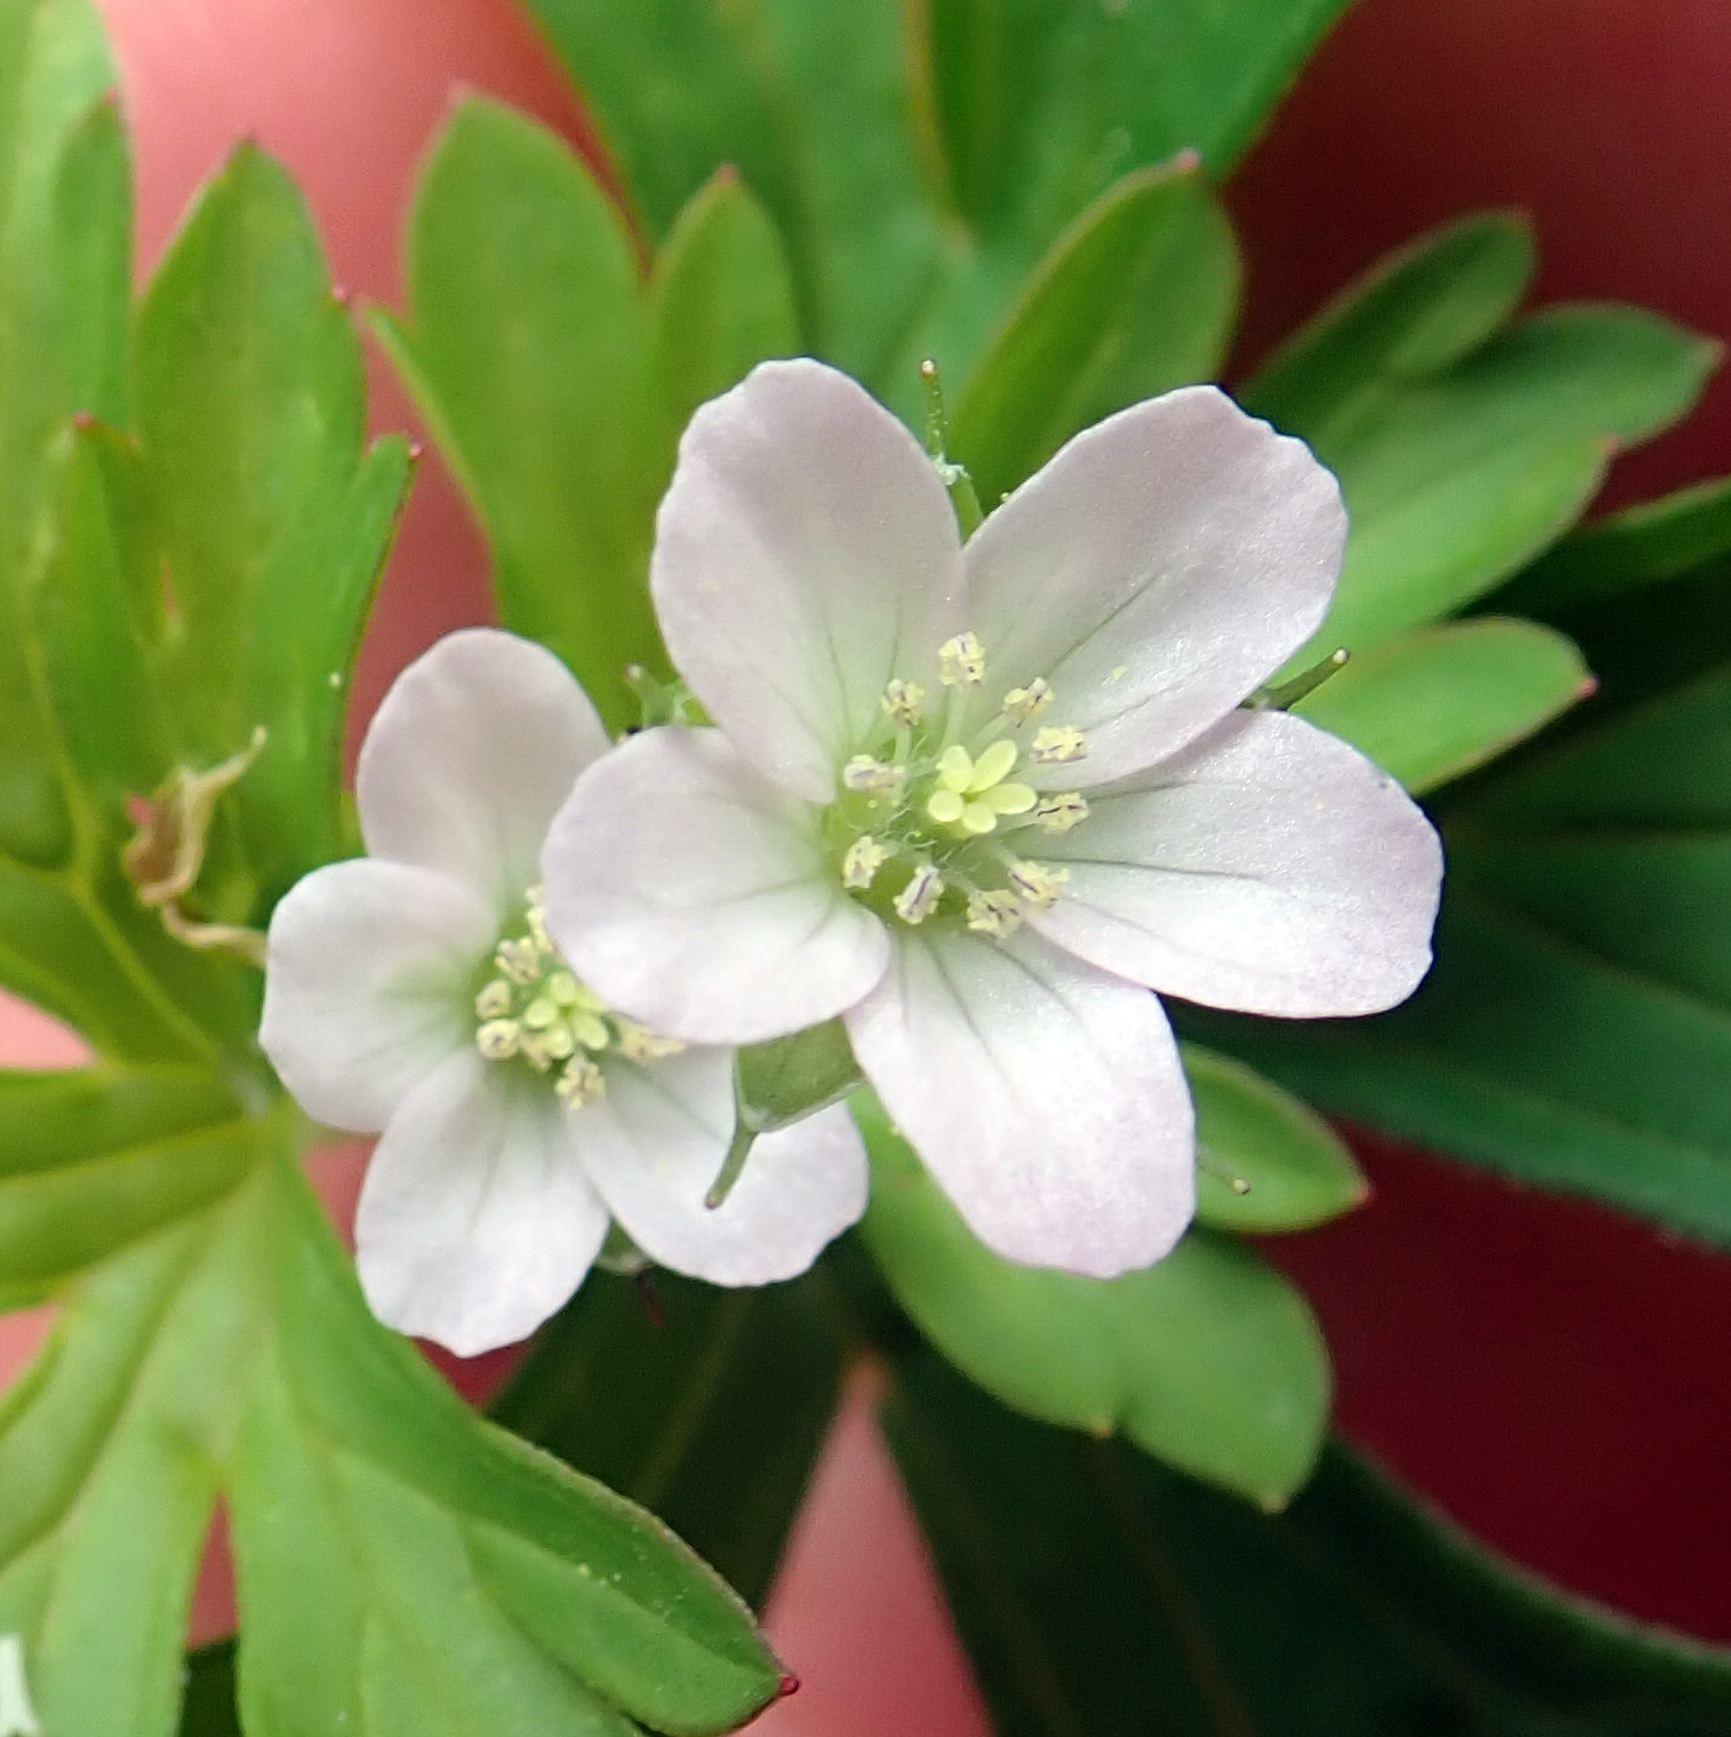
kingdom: Plantae
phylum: Tracheophyta
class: Magnoliopsida
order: Geraniales
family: Geraniaceae
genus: Geranium
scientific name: Geranium retrorsum
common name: New zealand geranium
